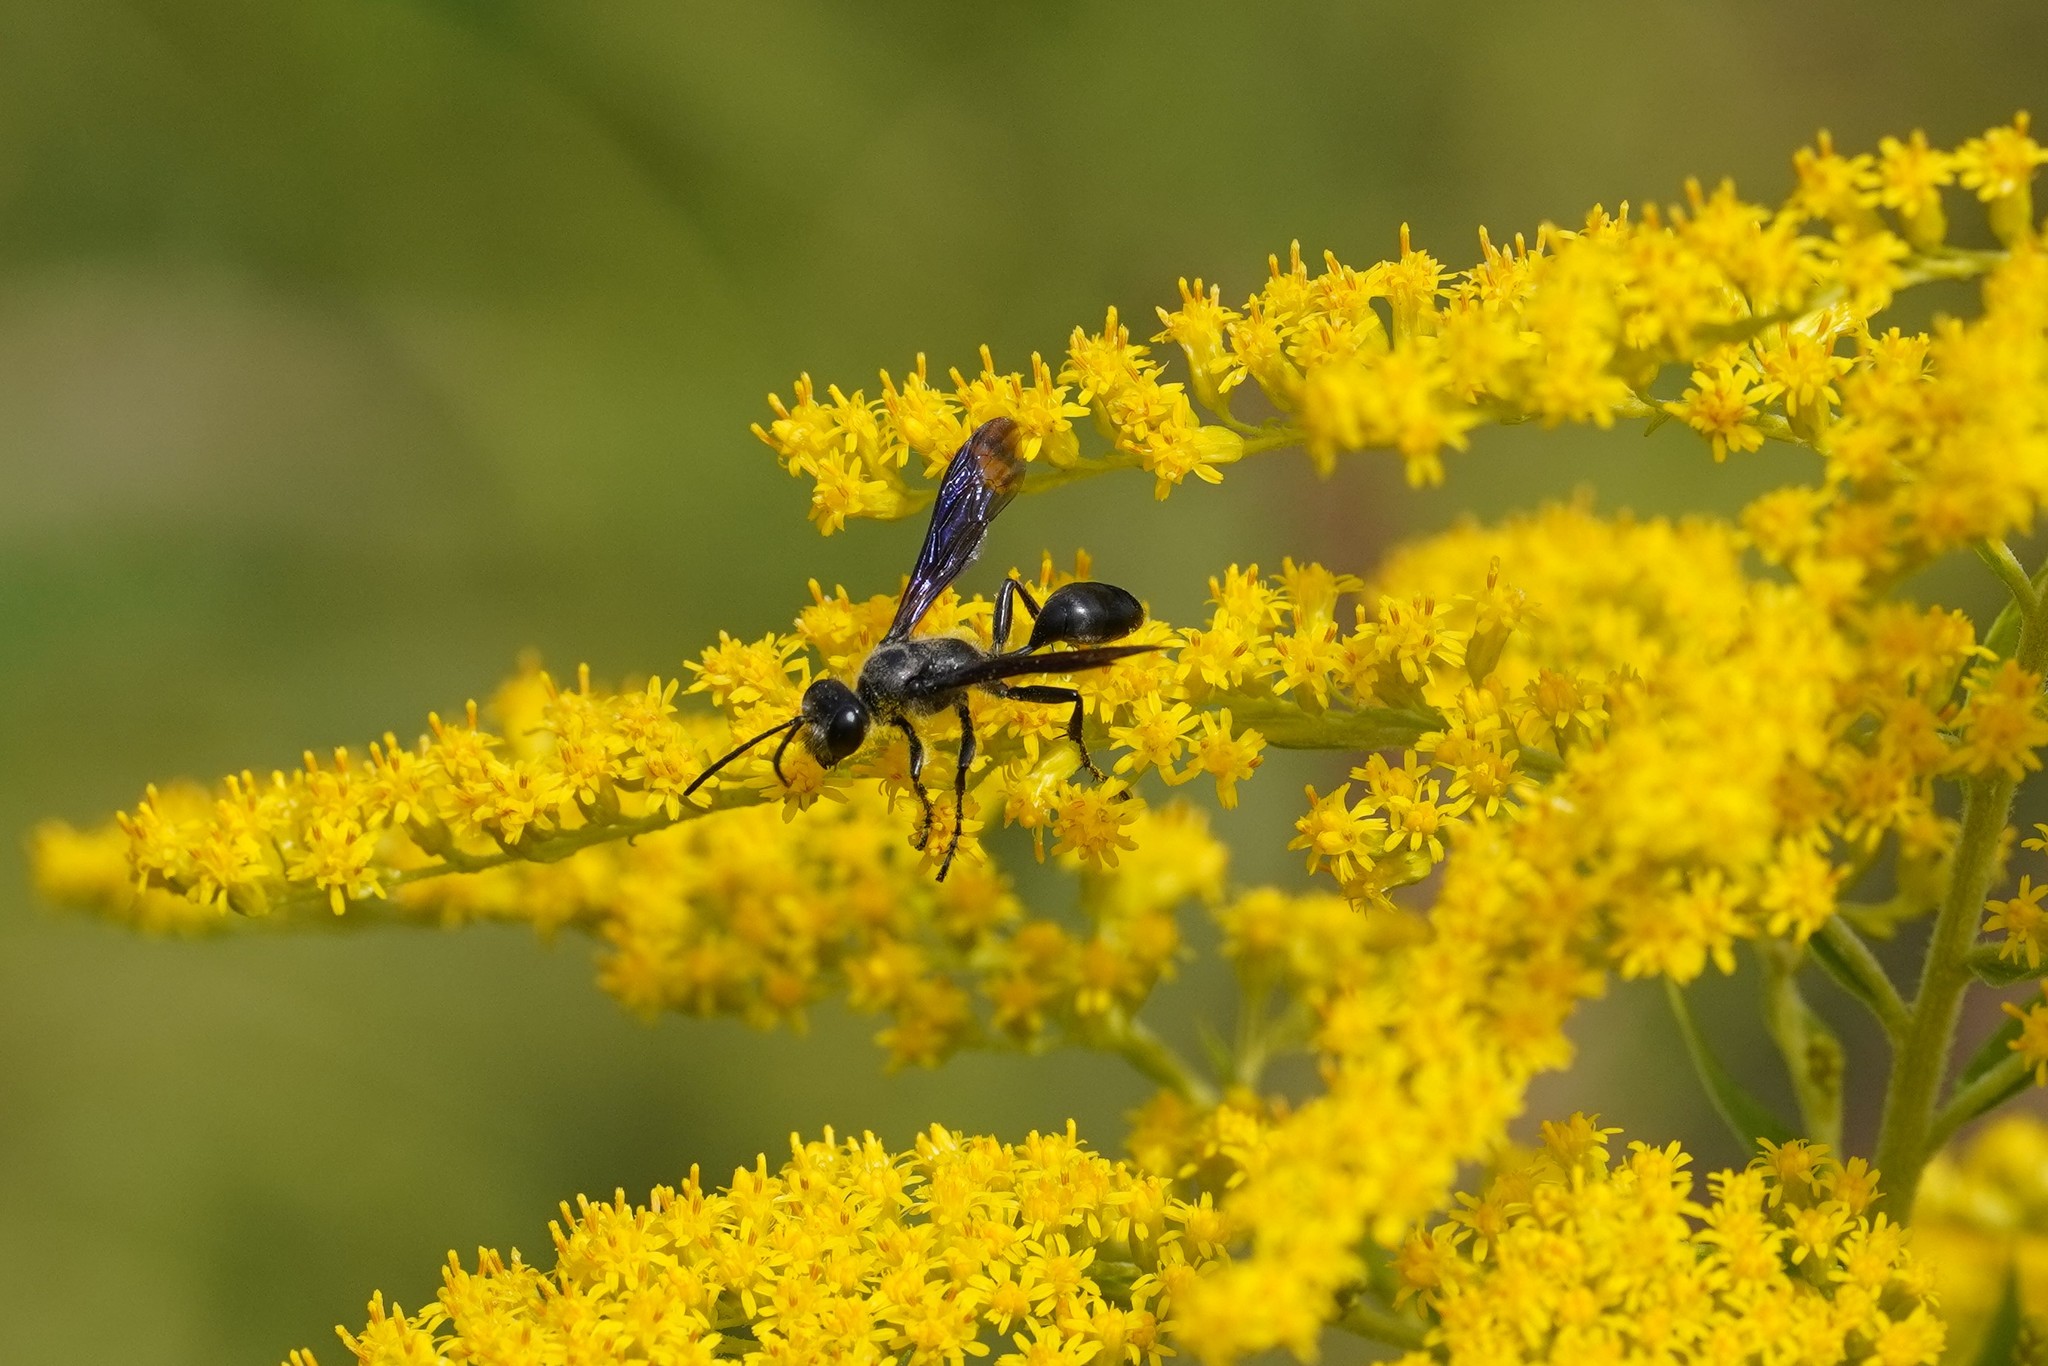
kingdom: Animalia
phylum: Arthropoda
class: Insecta
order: Hymenoptera
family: Sphecidae
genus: Isodontia
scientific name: Isodontia mexicana
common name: Mud dauber
